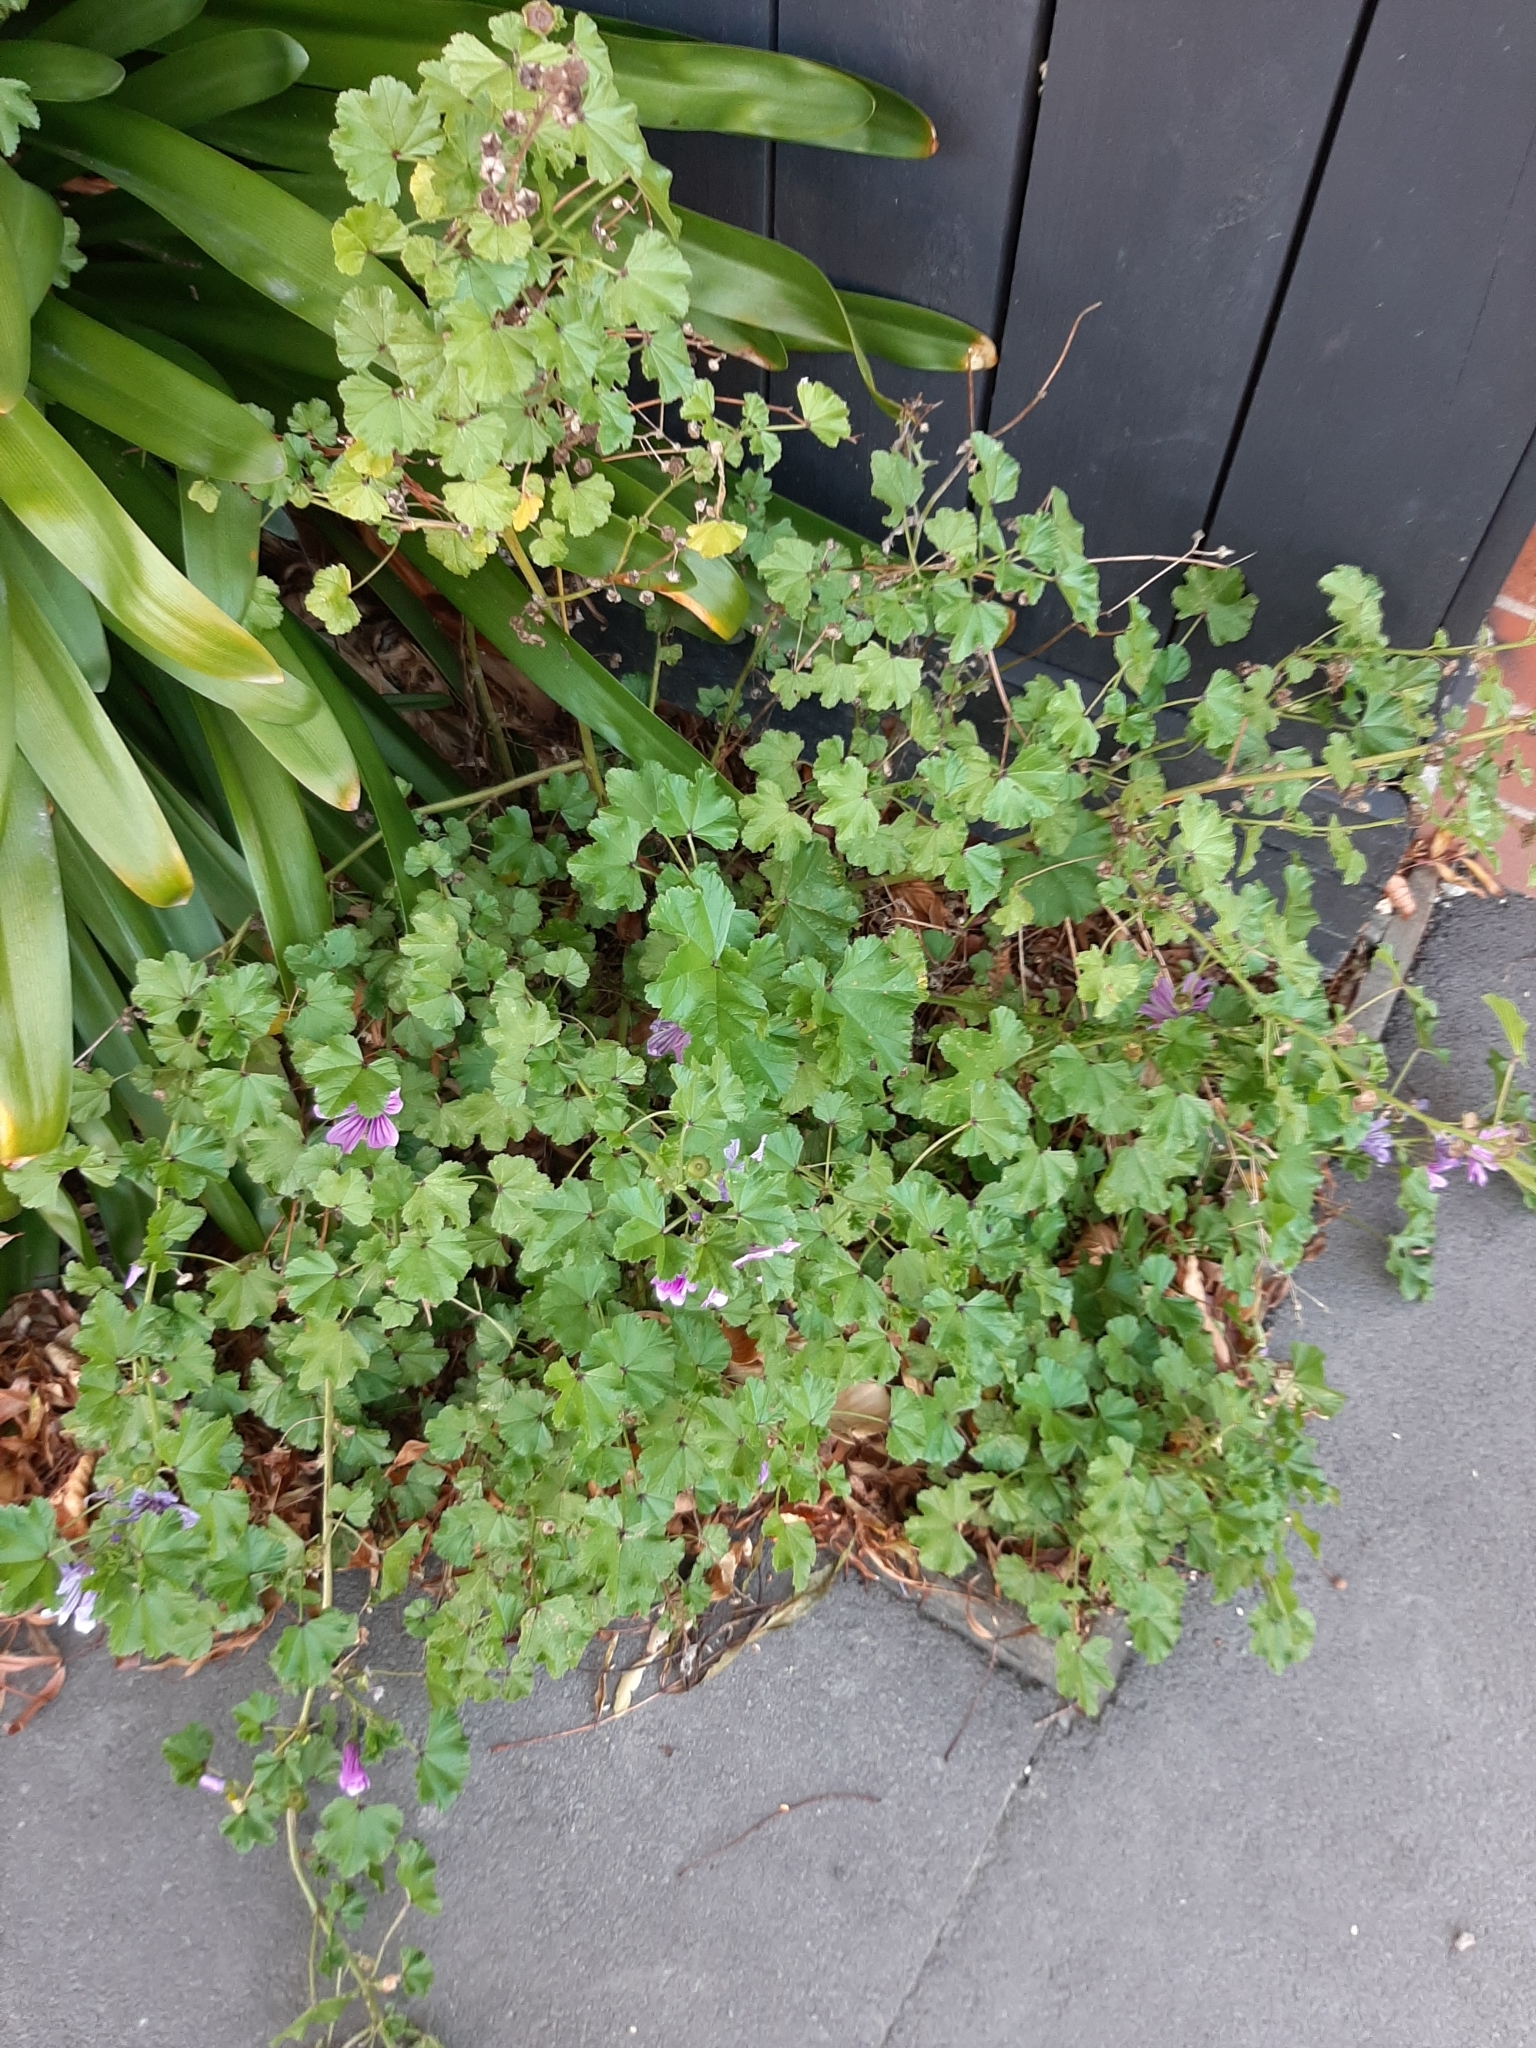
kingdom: Plantae
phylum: Tracheophyta
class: Magnoliopsida
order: Malvales
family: Malvaceae
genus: Malva
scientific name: Malva sylvestris
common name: Common mallow
